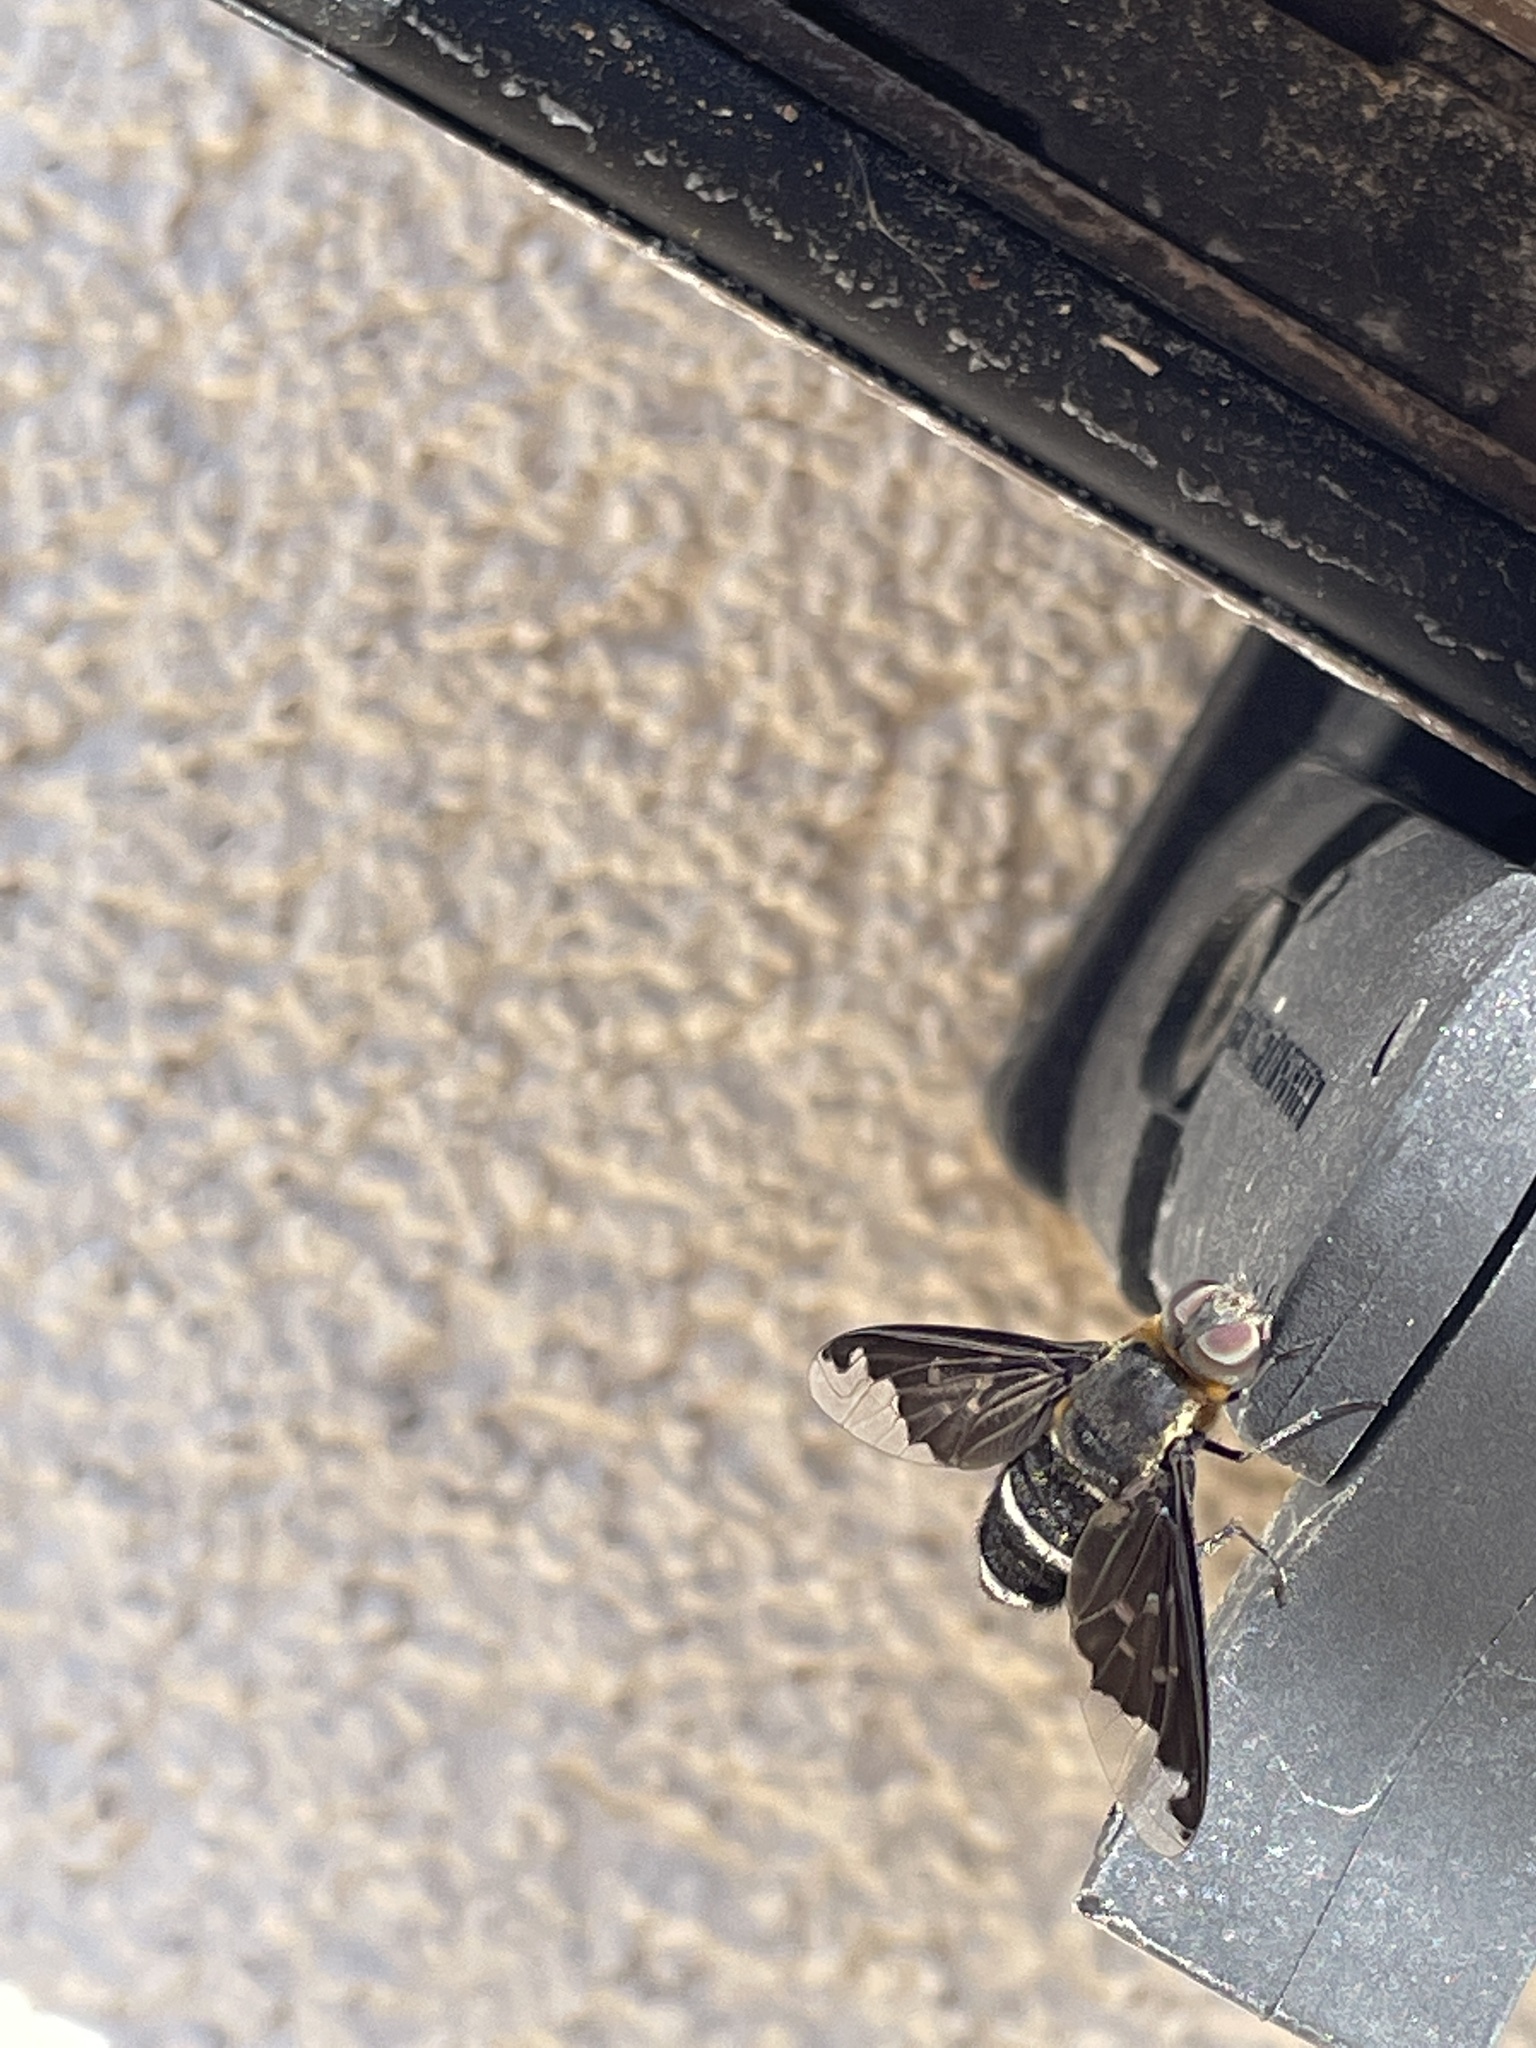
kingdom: Animalia
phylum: Arthropoda
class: Insecta
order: Diptera
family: Bombyliidae
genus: Hemipenthes
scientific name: Hemipenthes velutina
